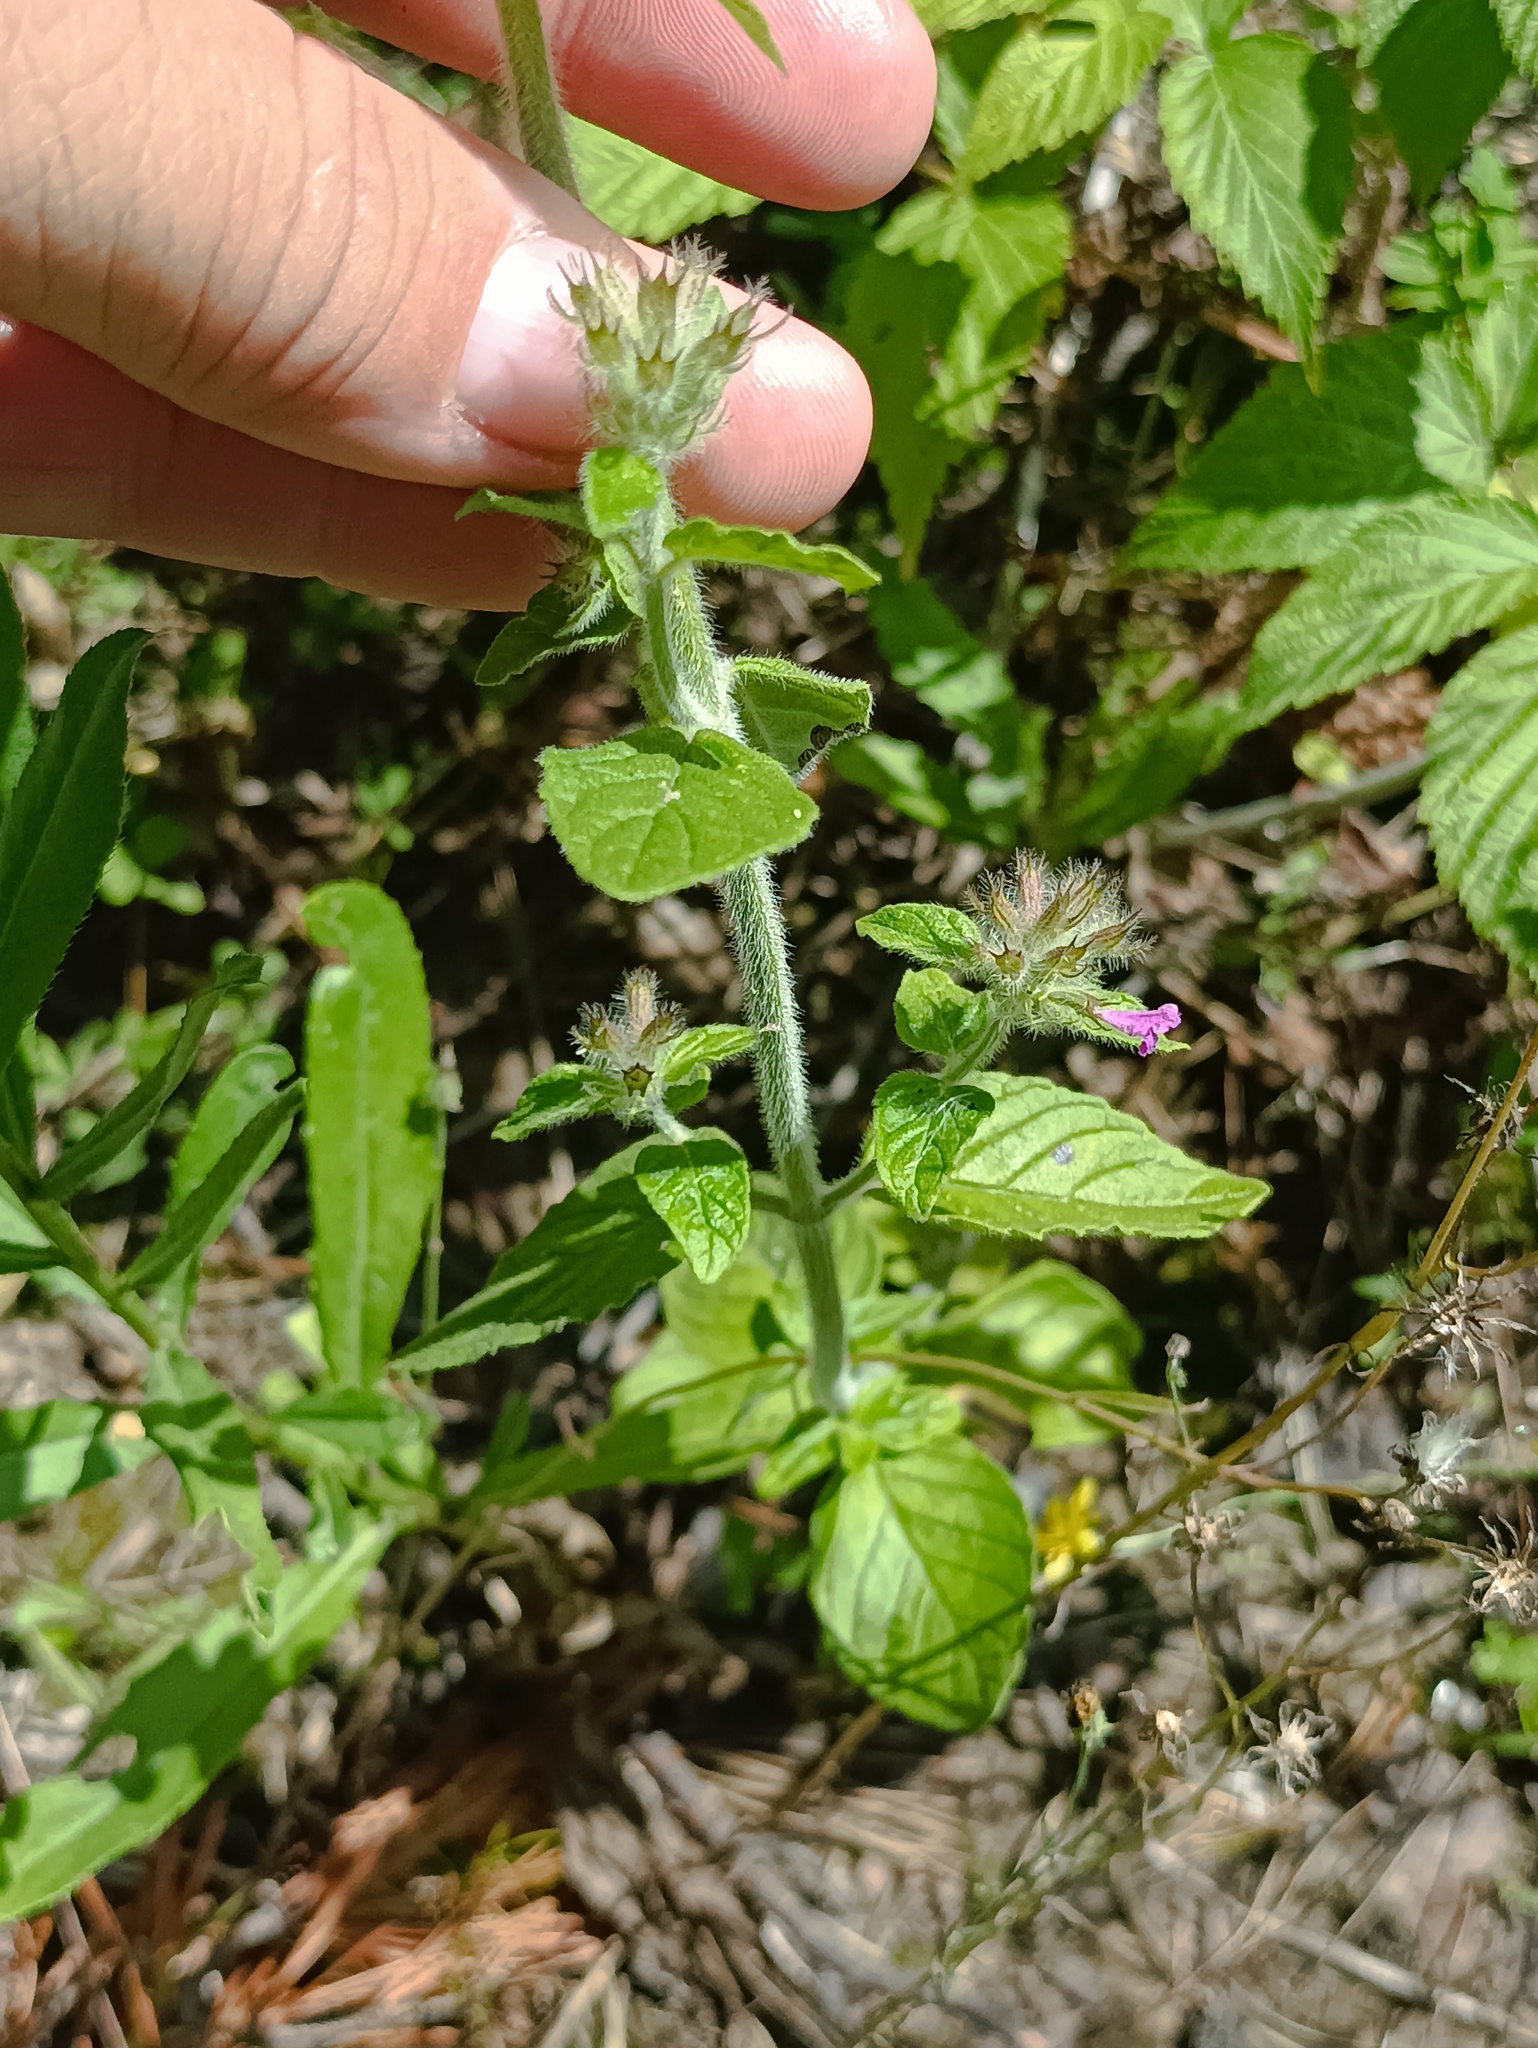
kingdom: Plantae
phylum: Tracheophyta
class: Magnoliopsida
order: Lamiales
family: Lamiaceae
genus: Clinopodium
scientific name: Clinopodium vulgare
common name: Wild basil
